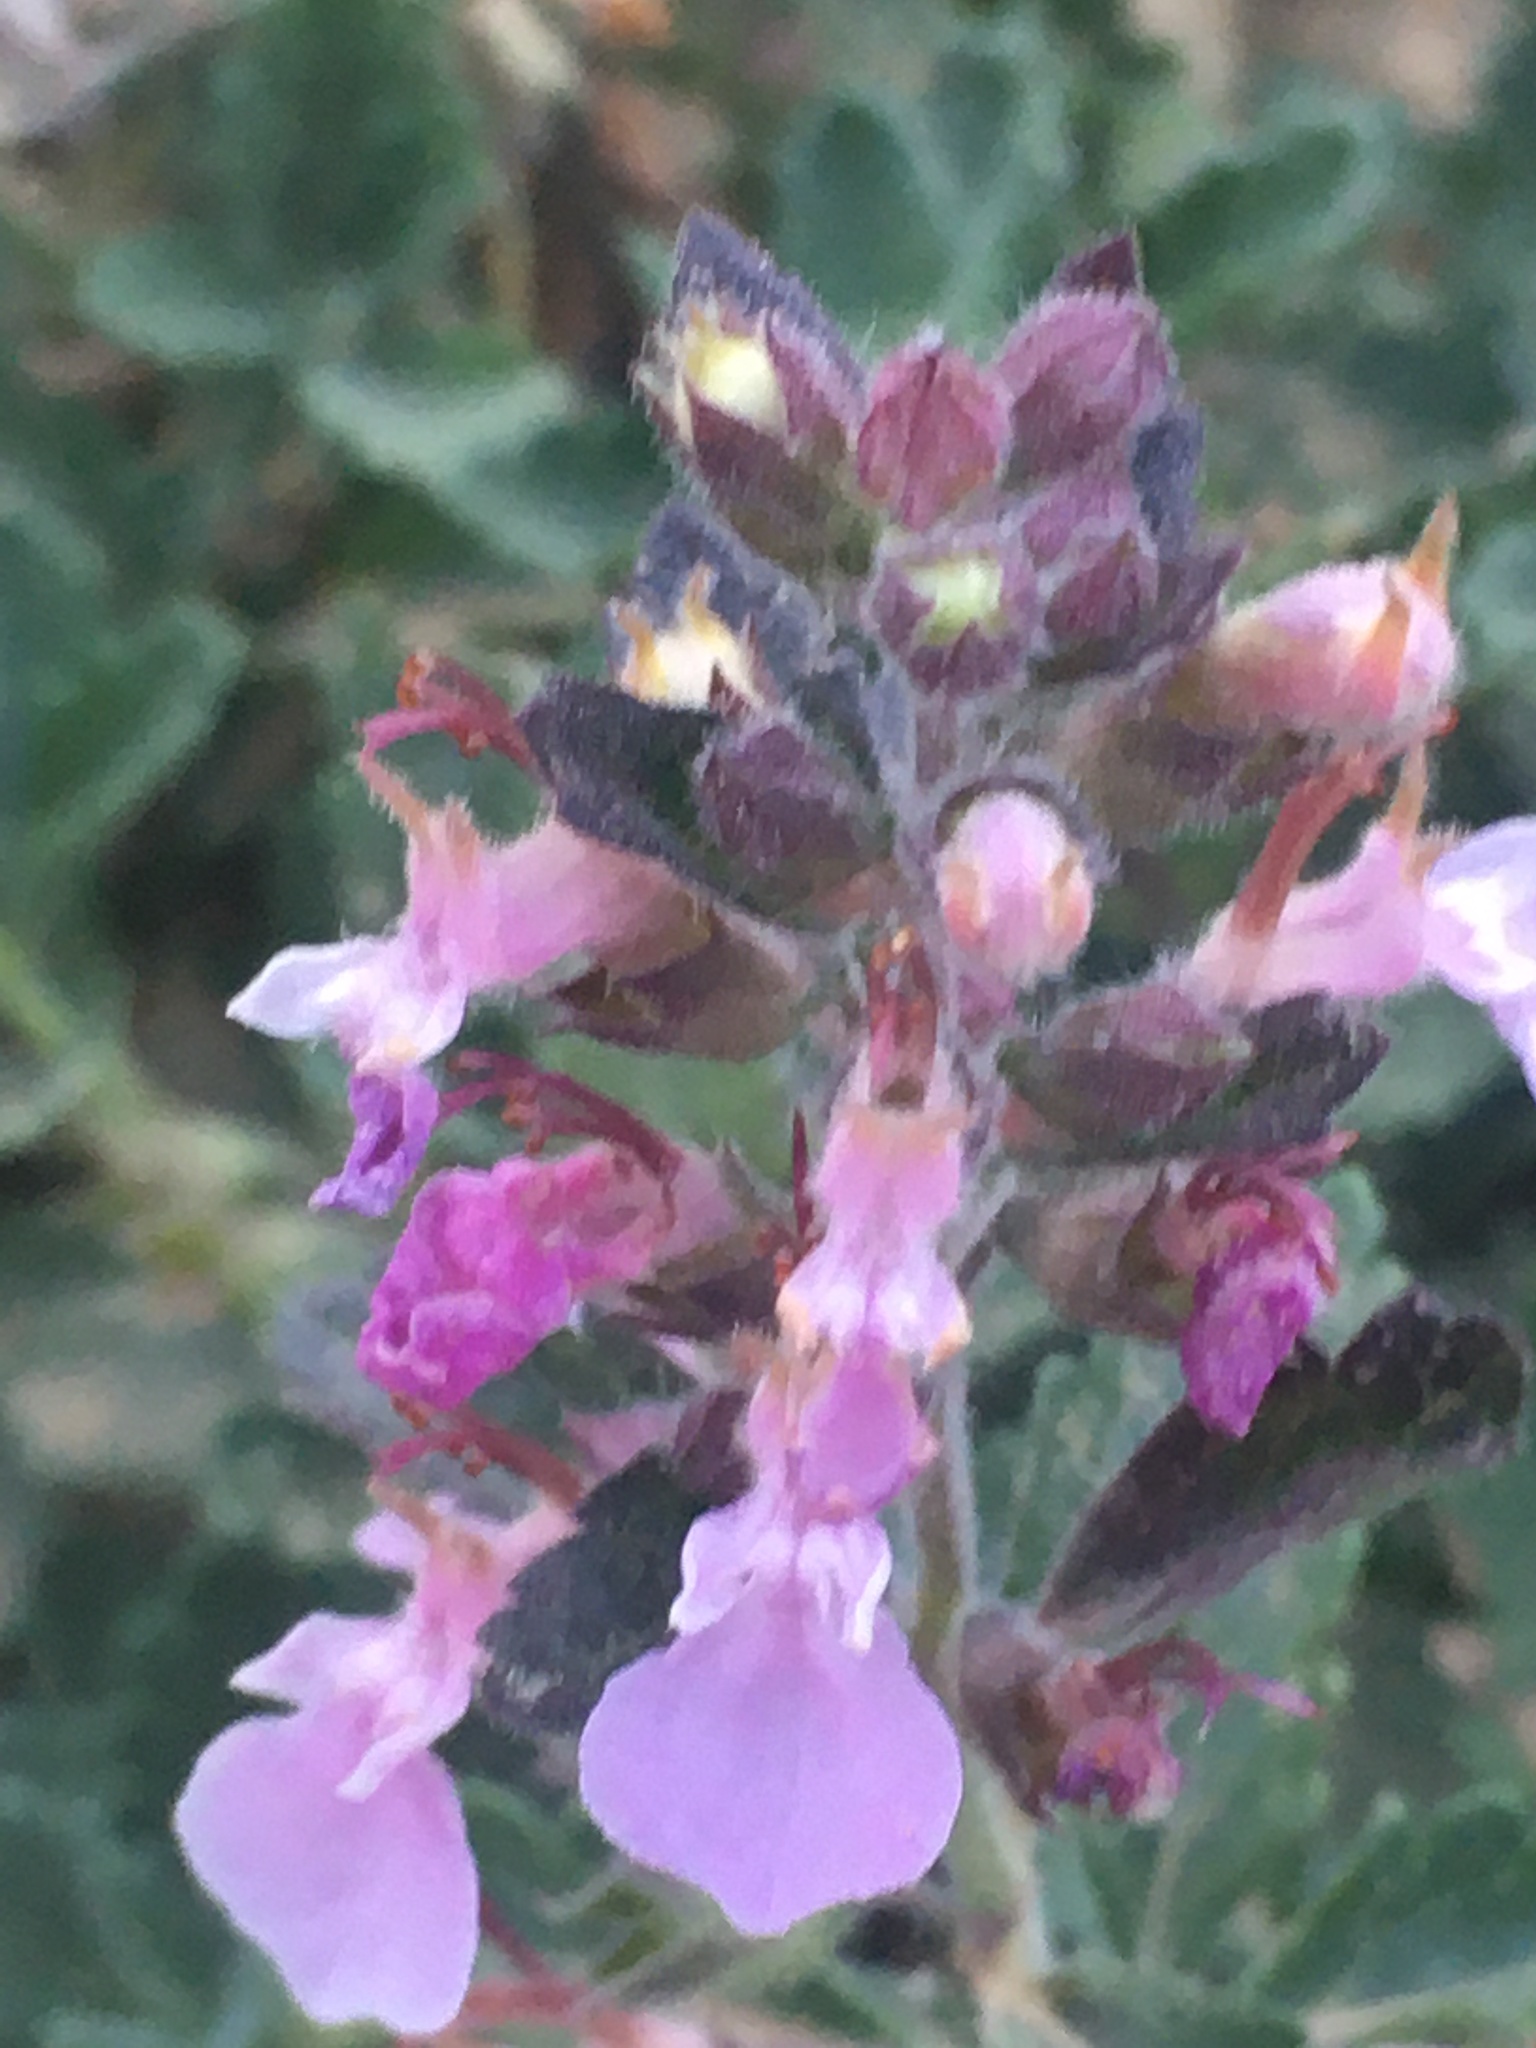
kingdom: Plantae
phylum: Tracheophyta
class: Magnoliopsida
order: Lamiales
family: Lamiaceae
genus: Teucrium
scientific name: Teucrium chamaedrys
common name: Wall germander
